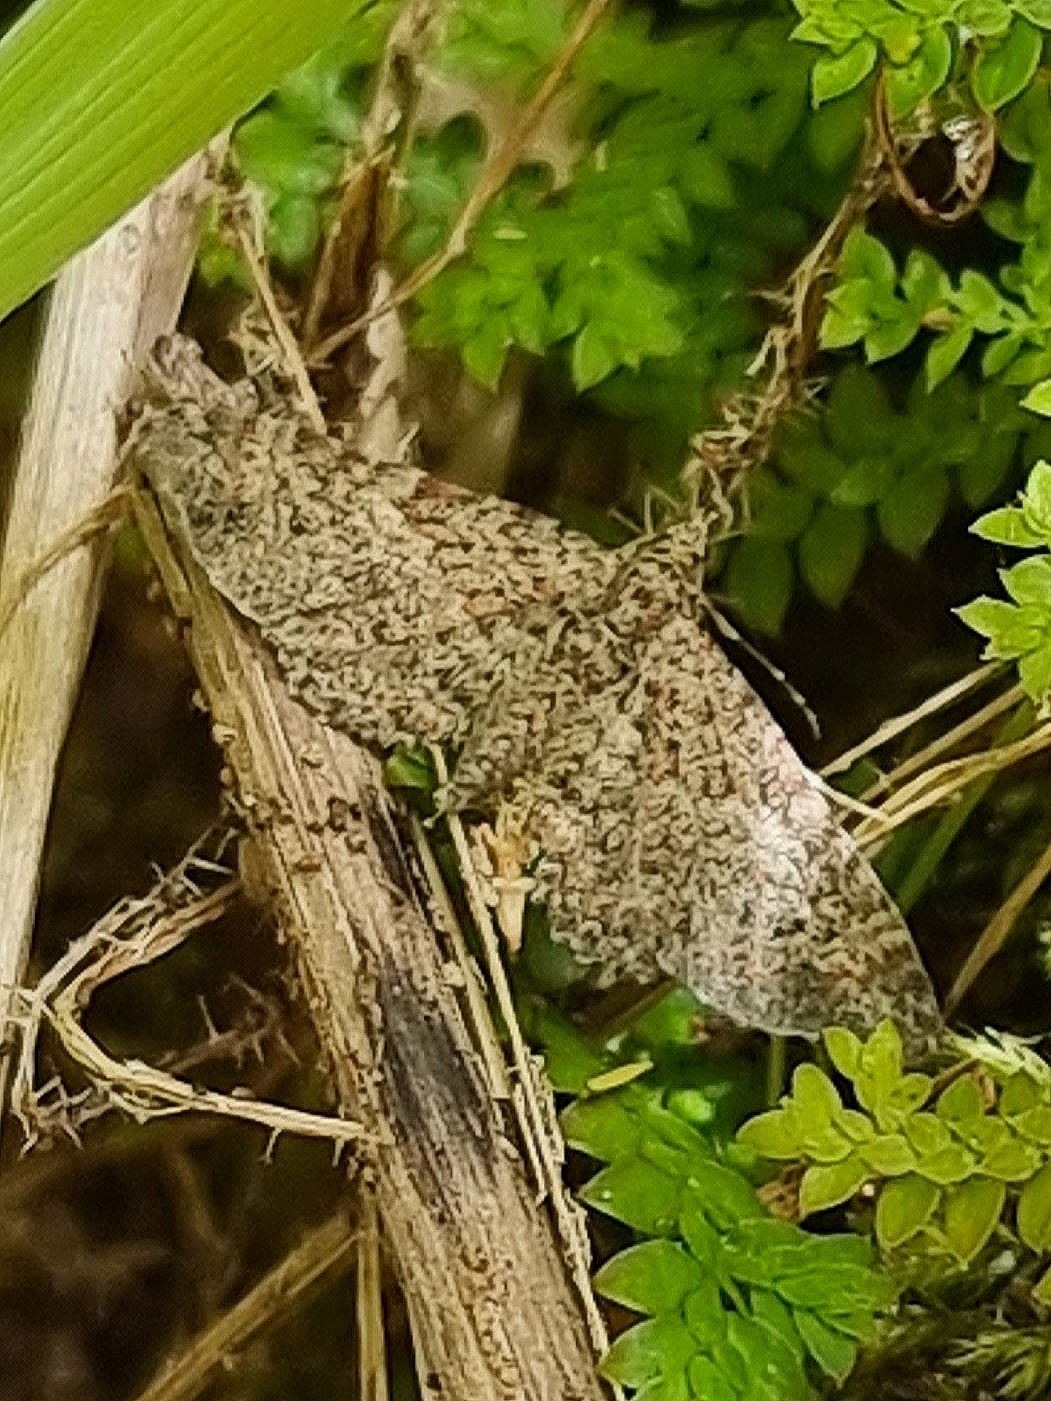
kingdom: Animalia
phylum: Arthropoda
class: Insecta
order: Lepidoptera
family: Geometridae
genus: Gymnoscelis
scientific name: Gymnoscelis rufifasciata
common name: Double-striped pug
